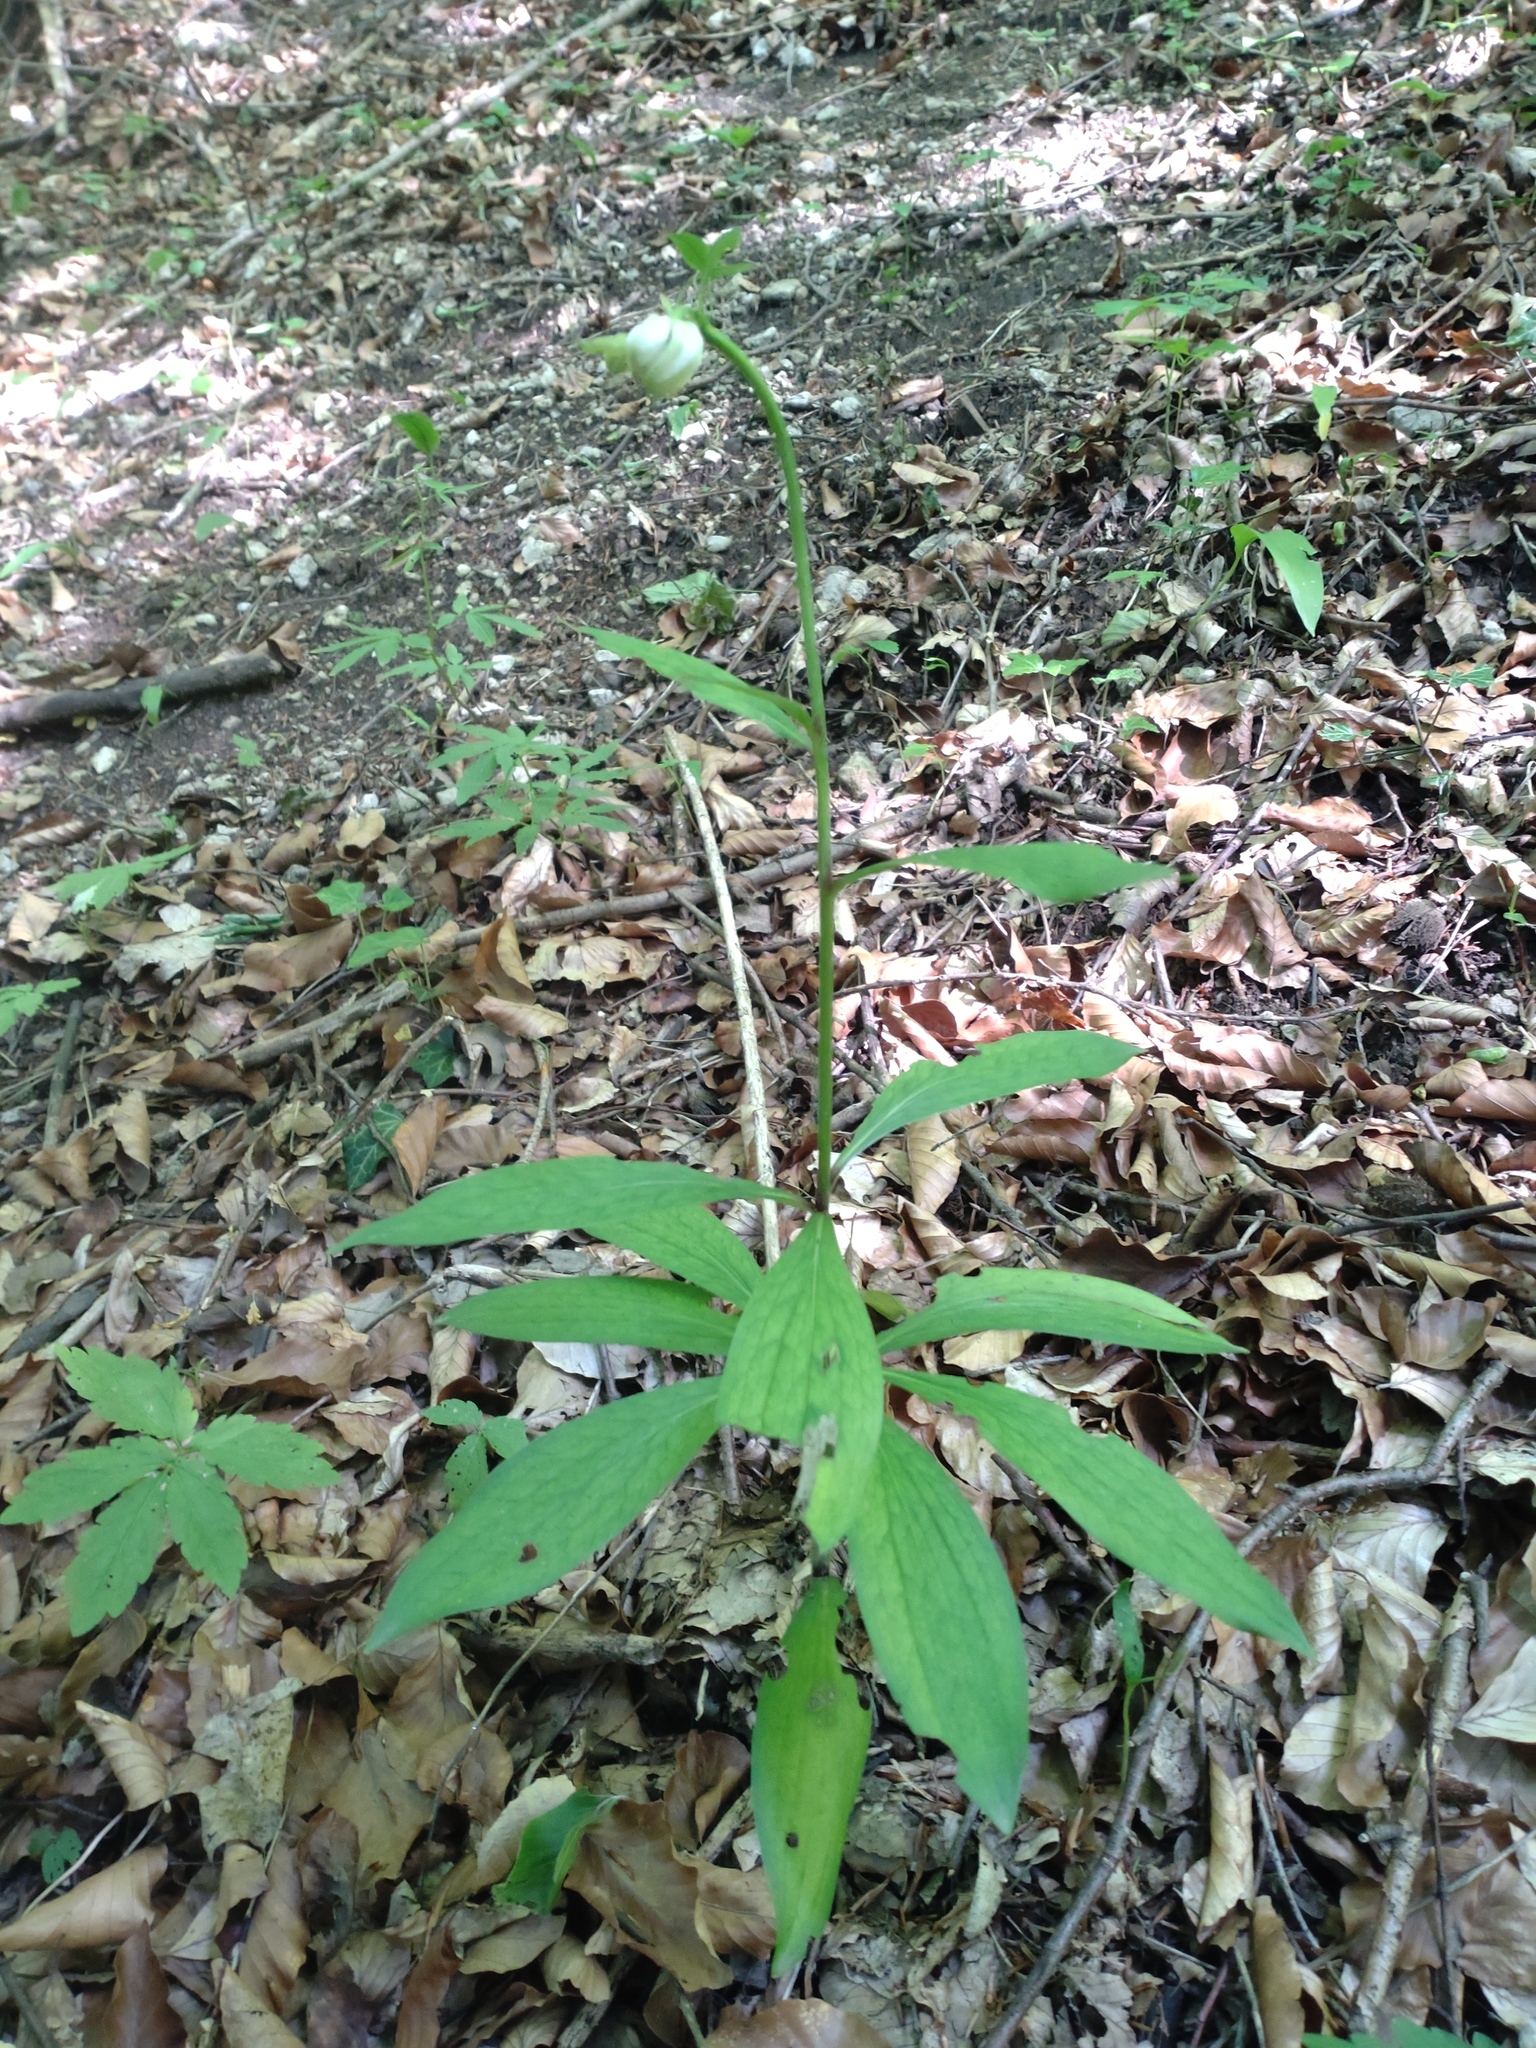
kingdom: Plantae
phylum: Tracheophyta
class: Liliopsida
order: Liliales
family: Liliaceae
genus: Lilium
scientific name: Lilium martagon
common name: Martagon lily
